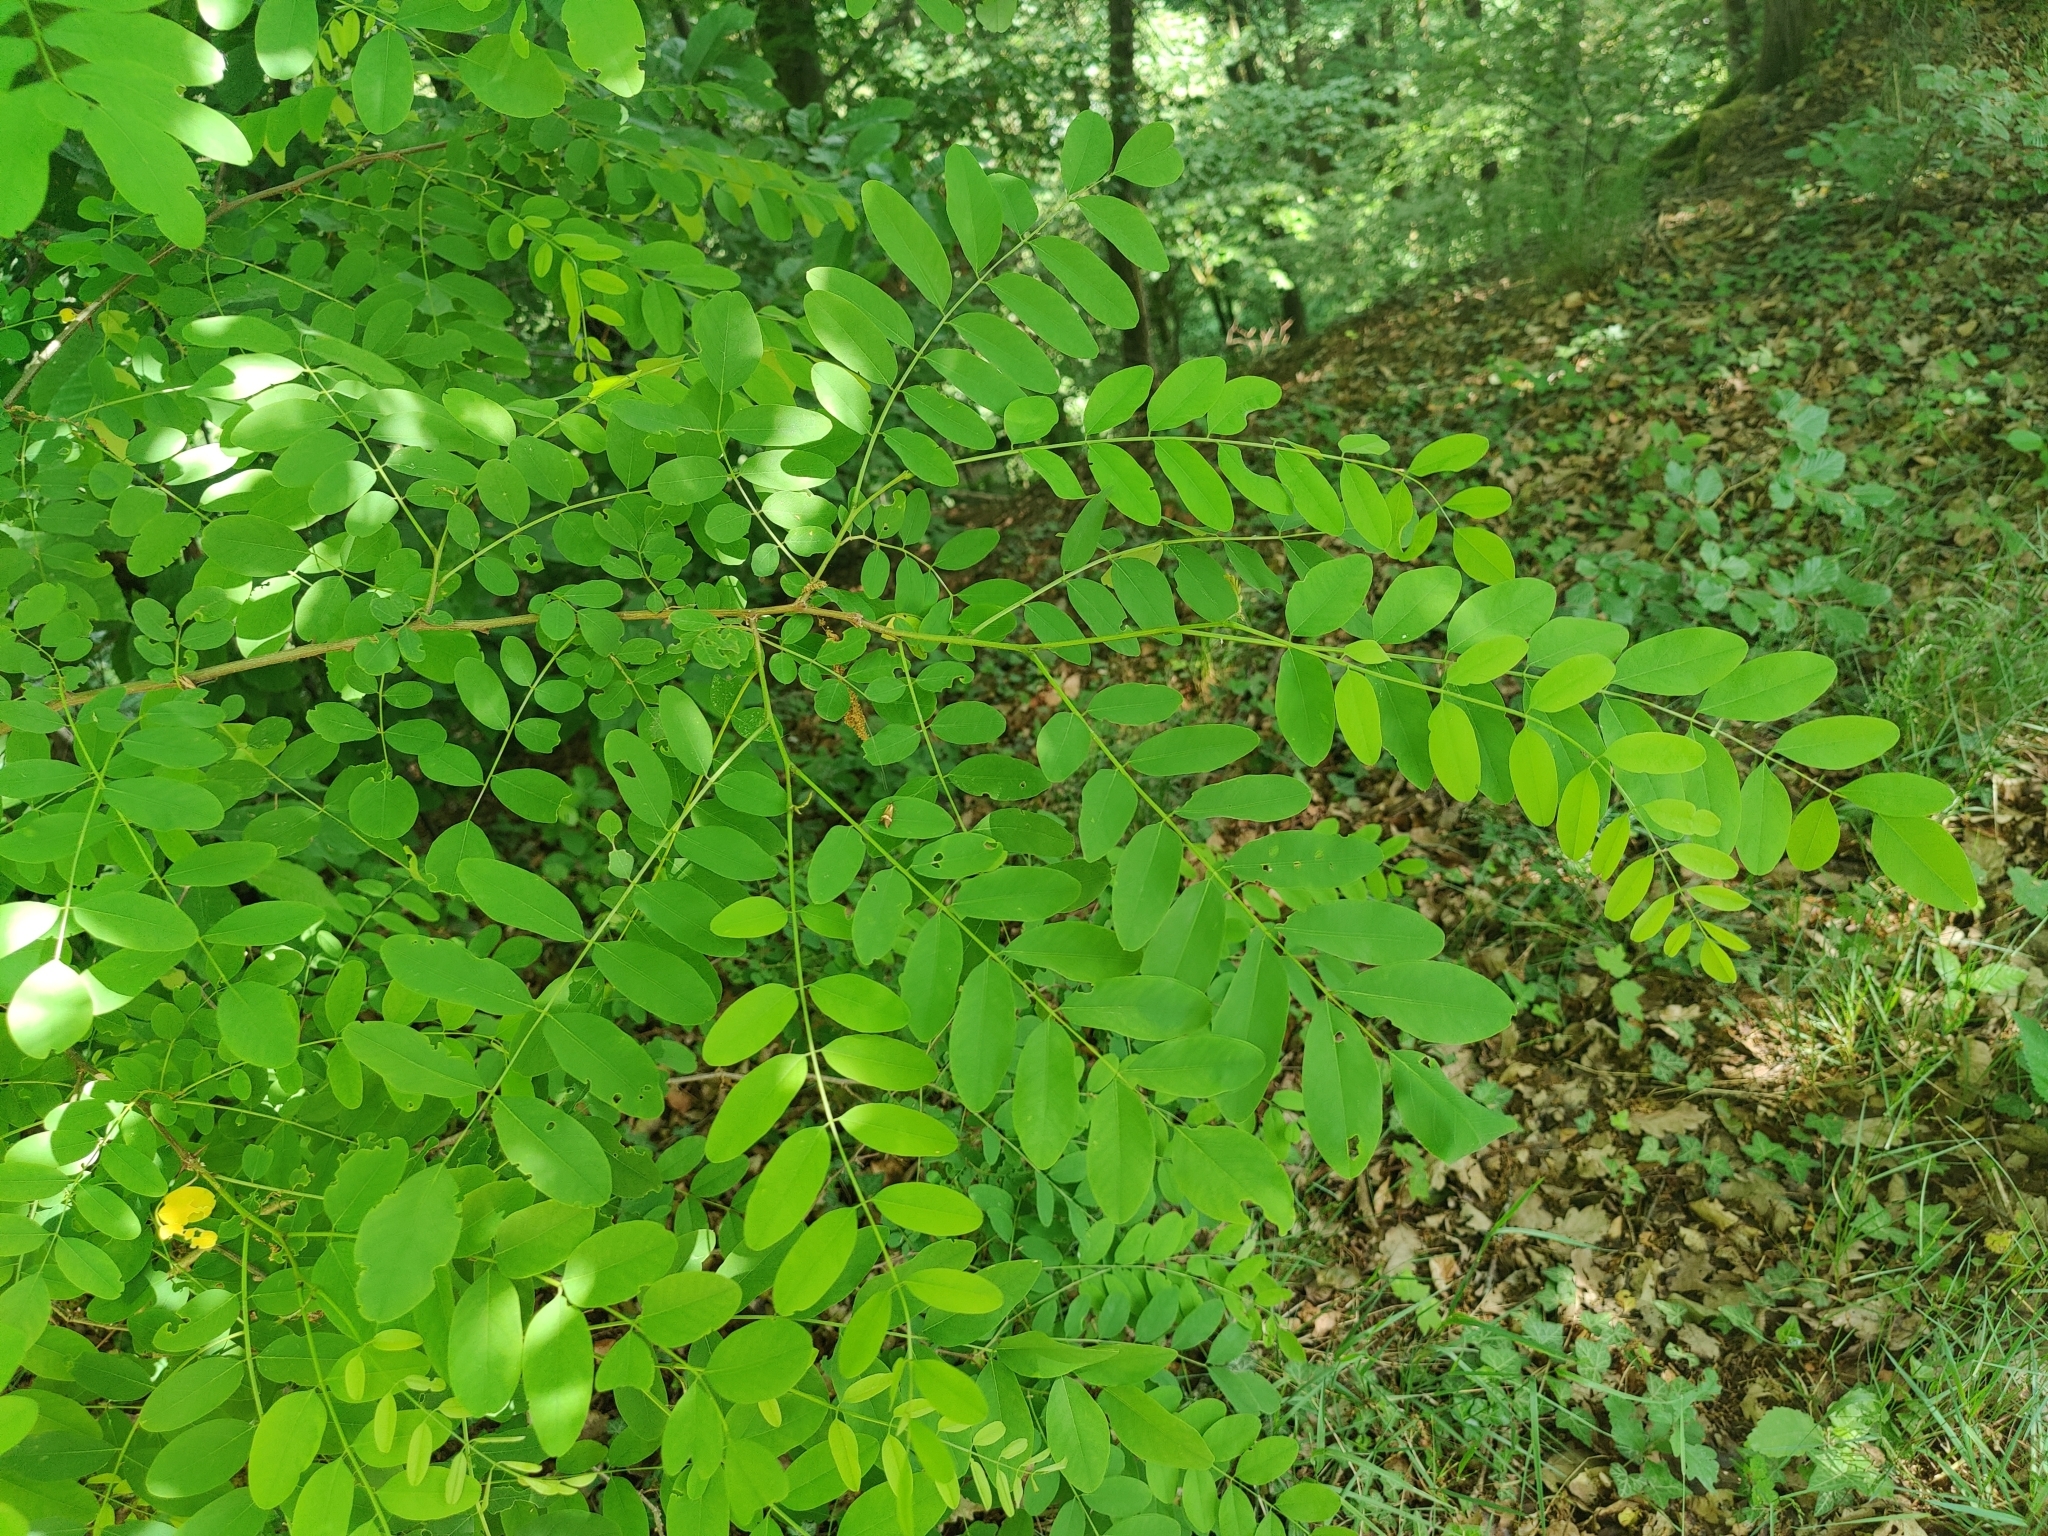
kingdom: Plantae
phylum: Tracheophyta
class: Magnoliopsida
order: Fabales
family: Fabaceae
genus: Robinia
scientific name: Robinia pseudoacacia
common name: Black locust
